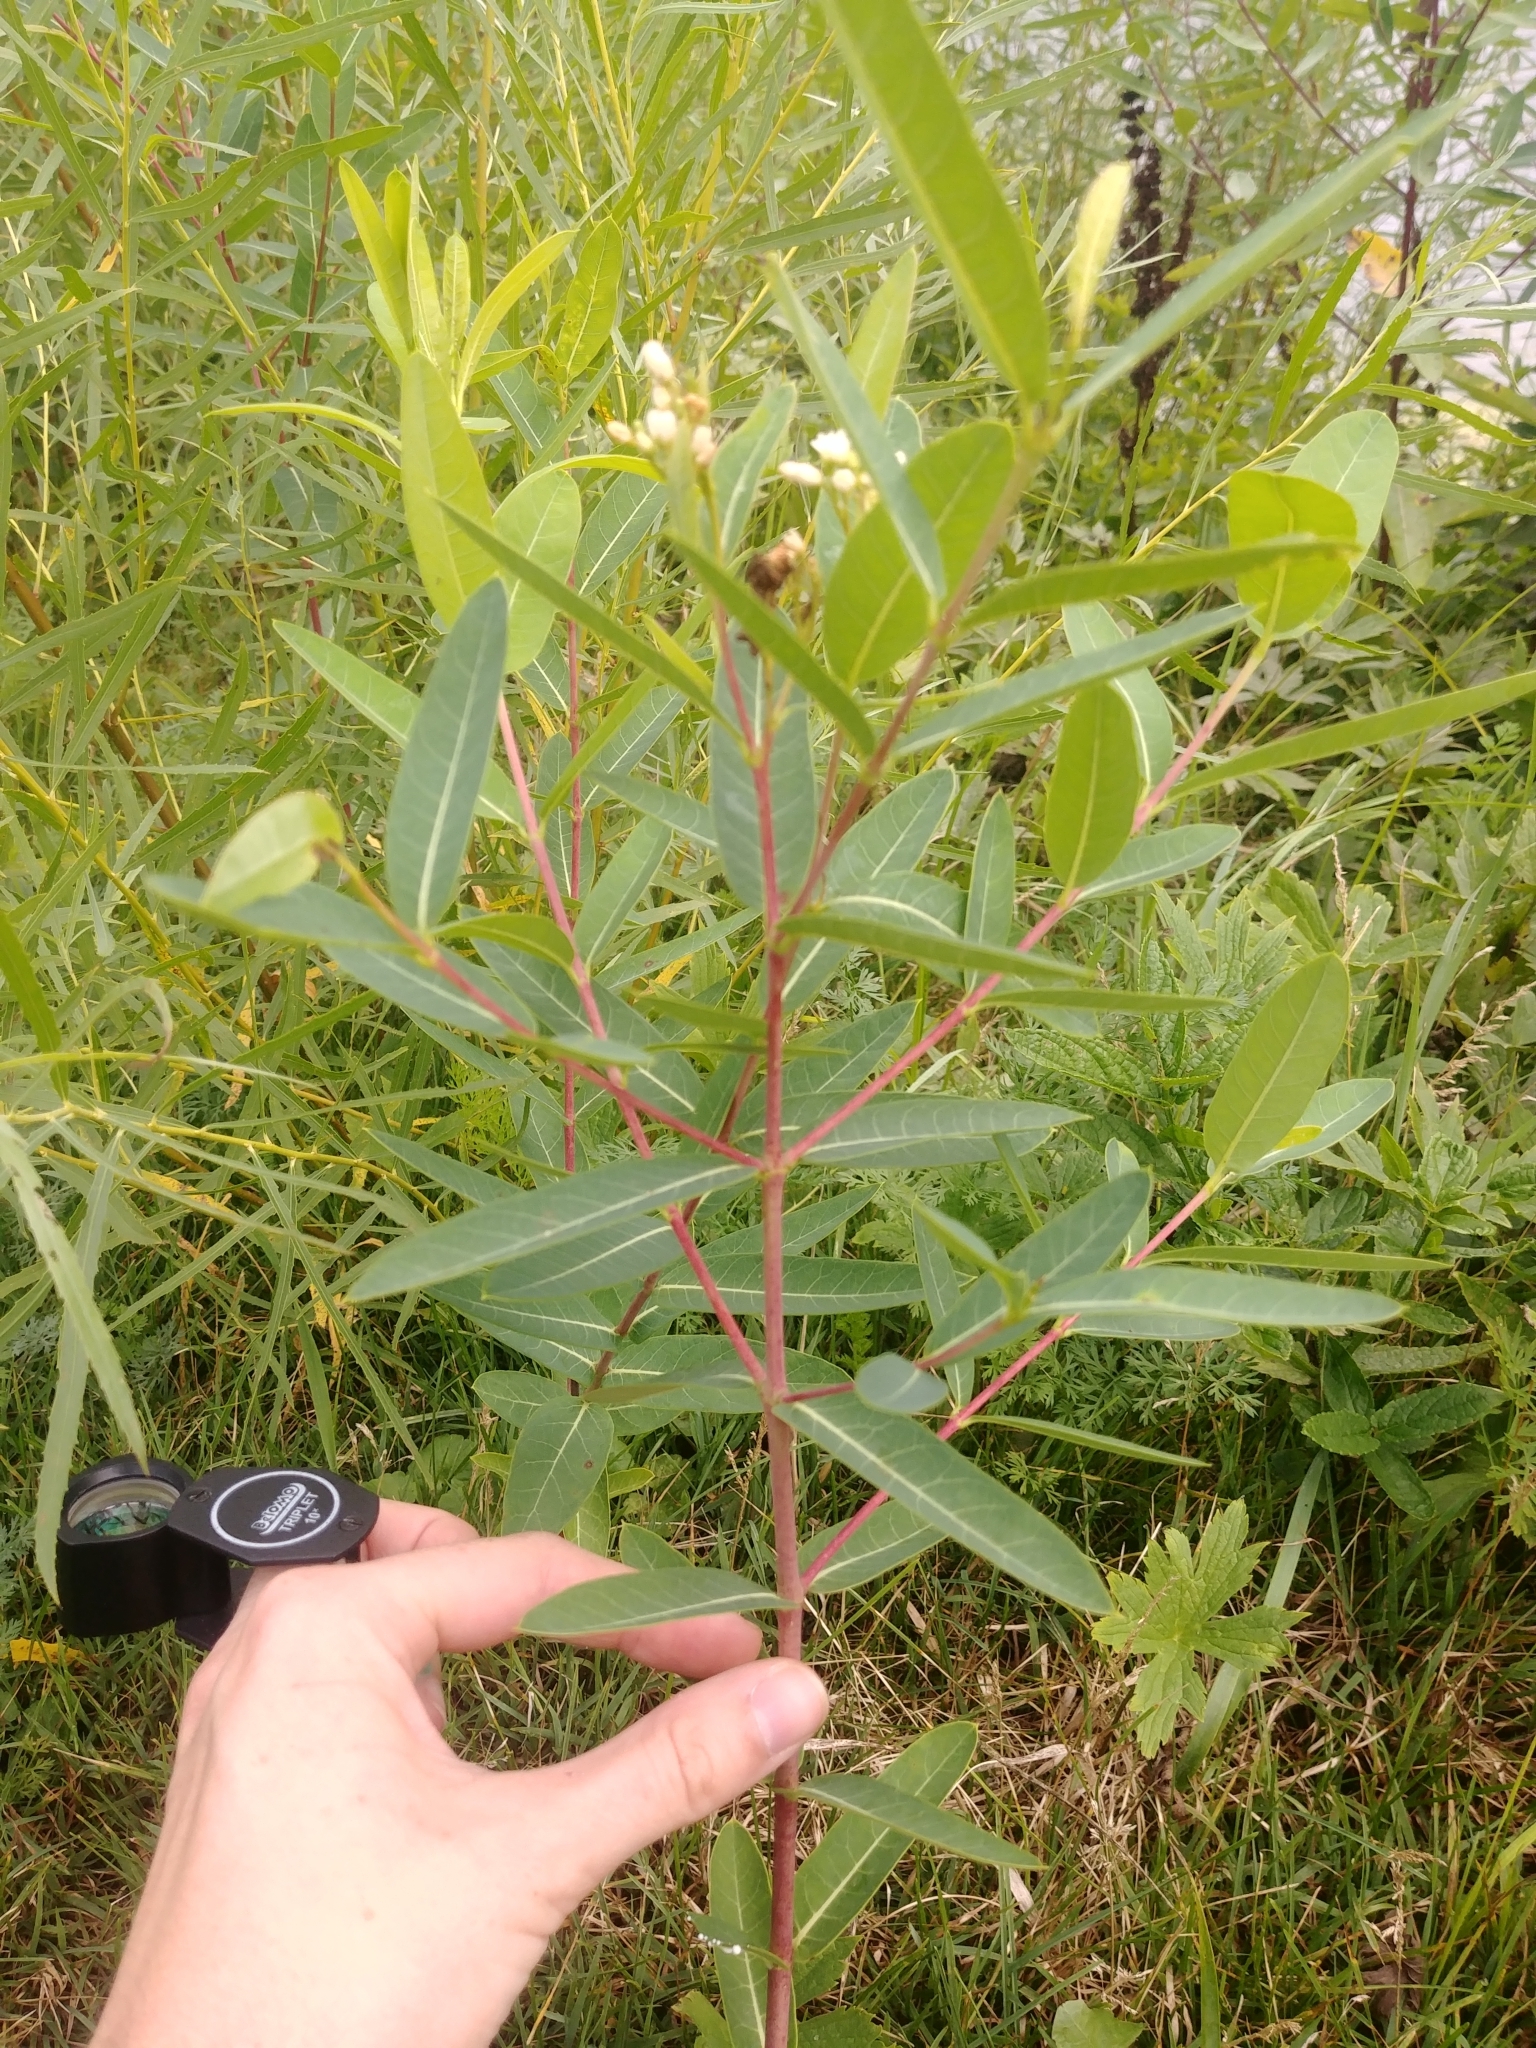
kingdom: Plantae
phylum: Tracheophyta
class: Magnoliopsida
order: Gentianales
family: Apocynaceae
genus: Apocynum
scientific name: Apocynum cannabinum
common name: Hemp dogbane
